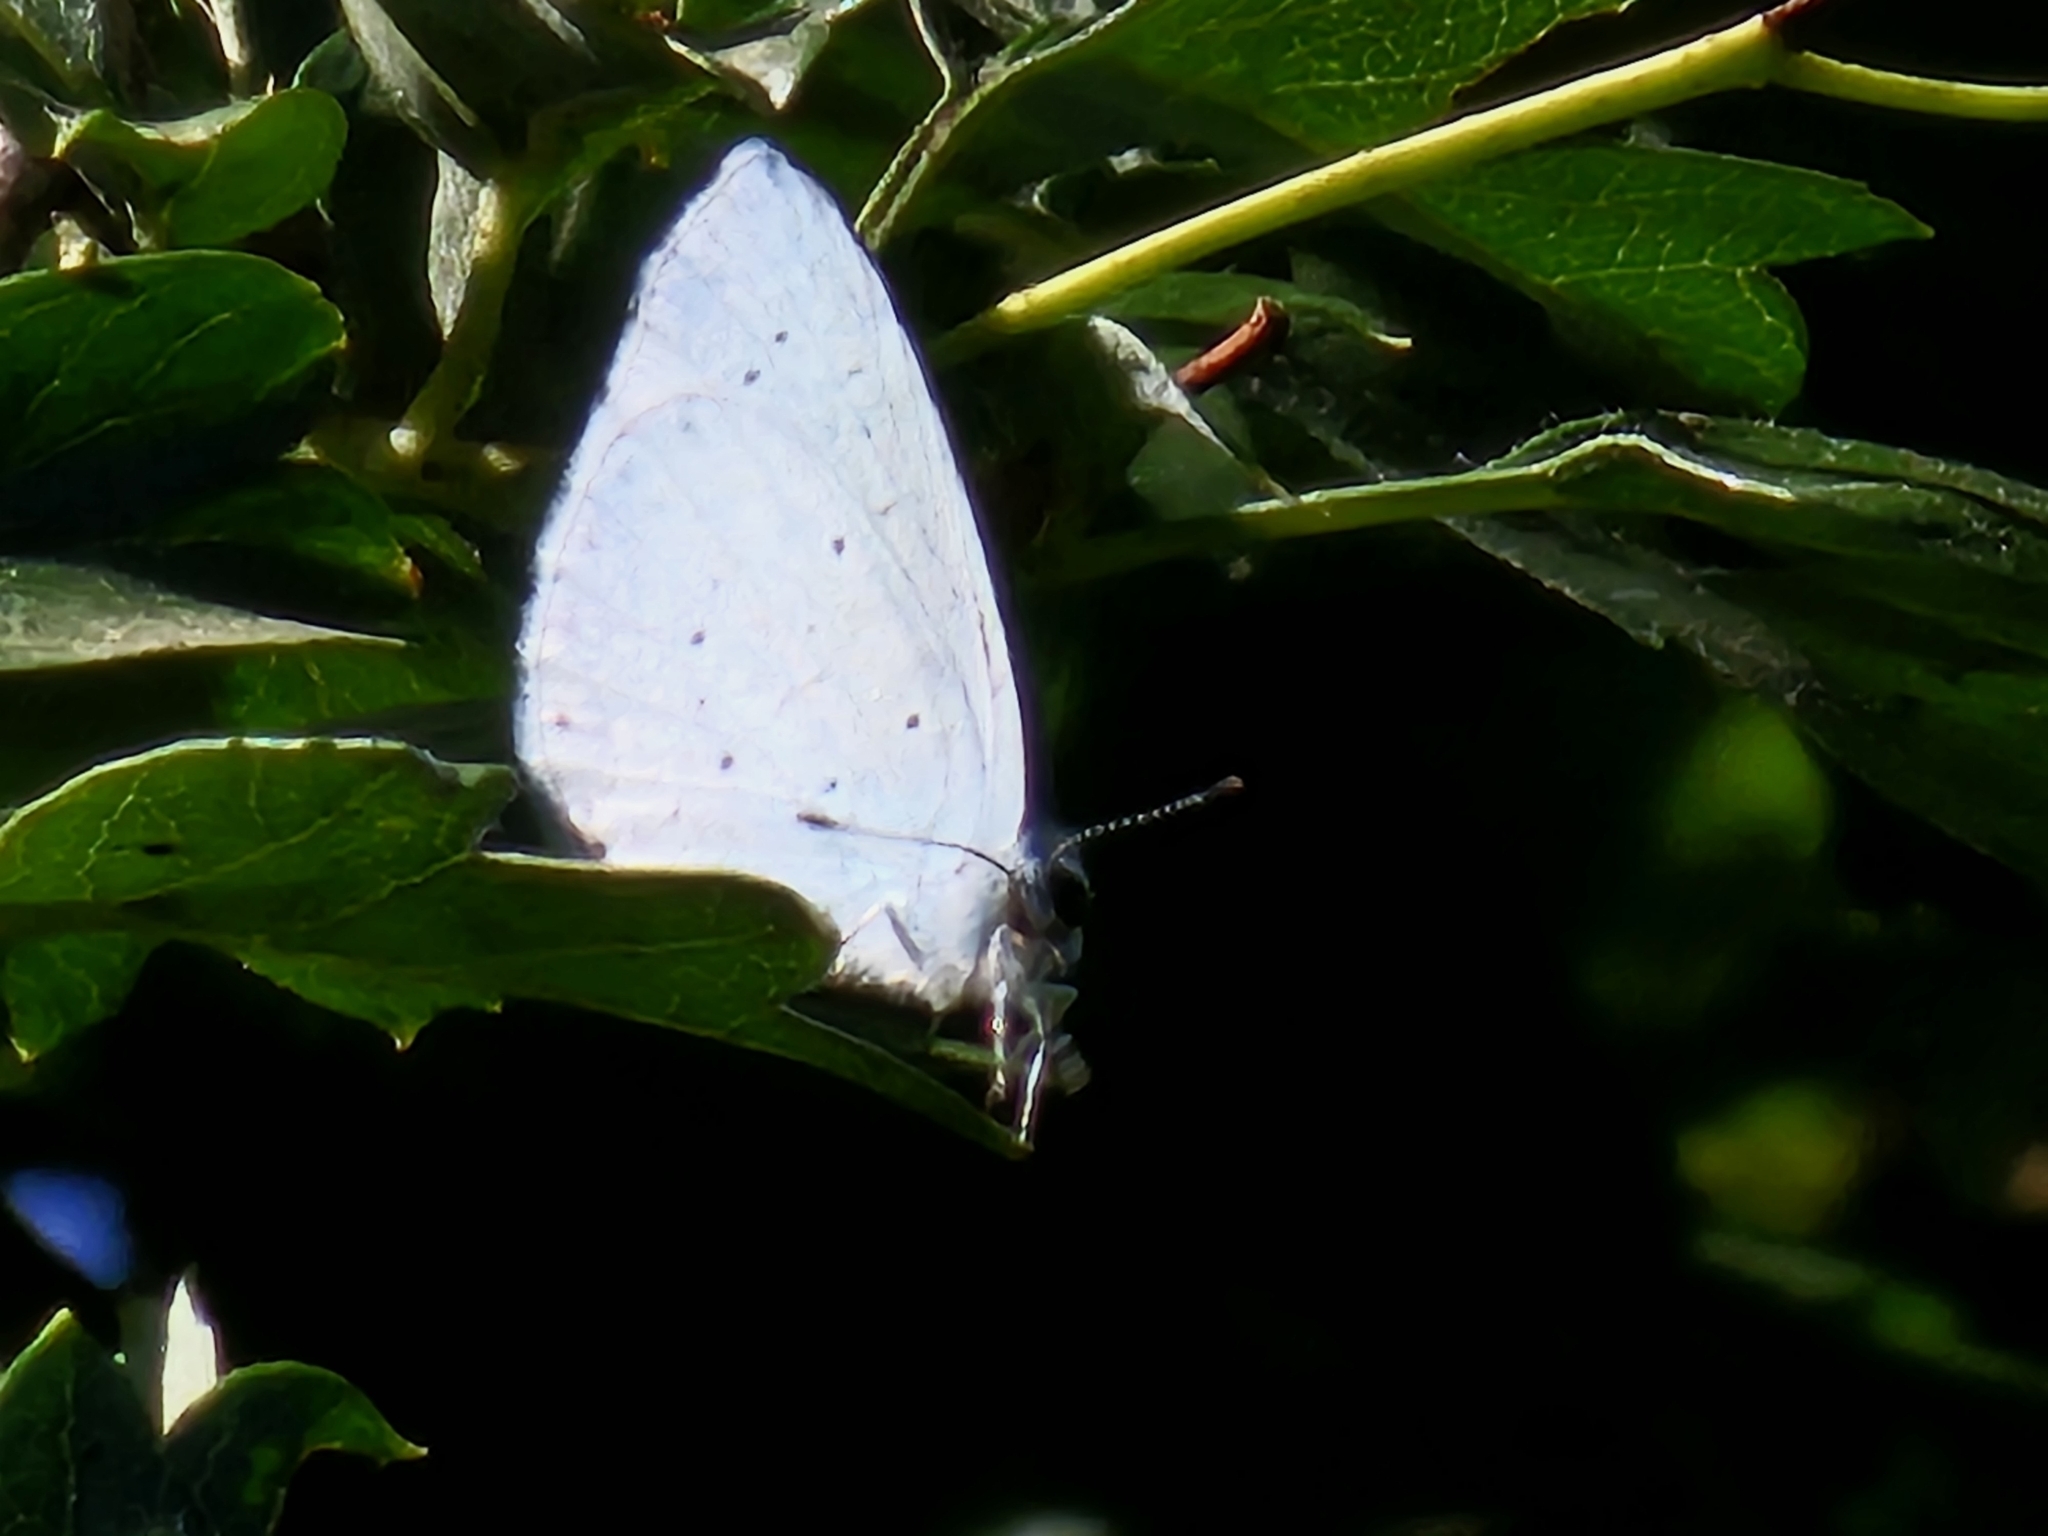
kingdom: Animalia
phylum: Arthropoda
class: Insecta
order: Lepidoptera
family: Lycaenidae
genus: Celastrina
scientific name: Celastrina argiolus
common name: Holly blue
